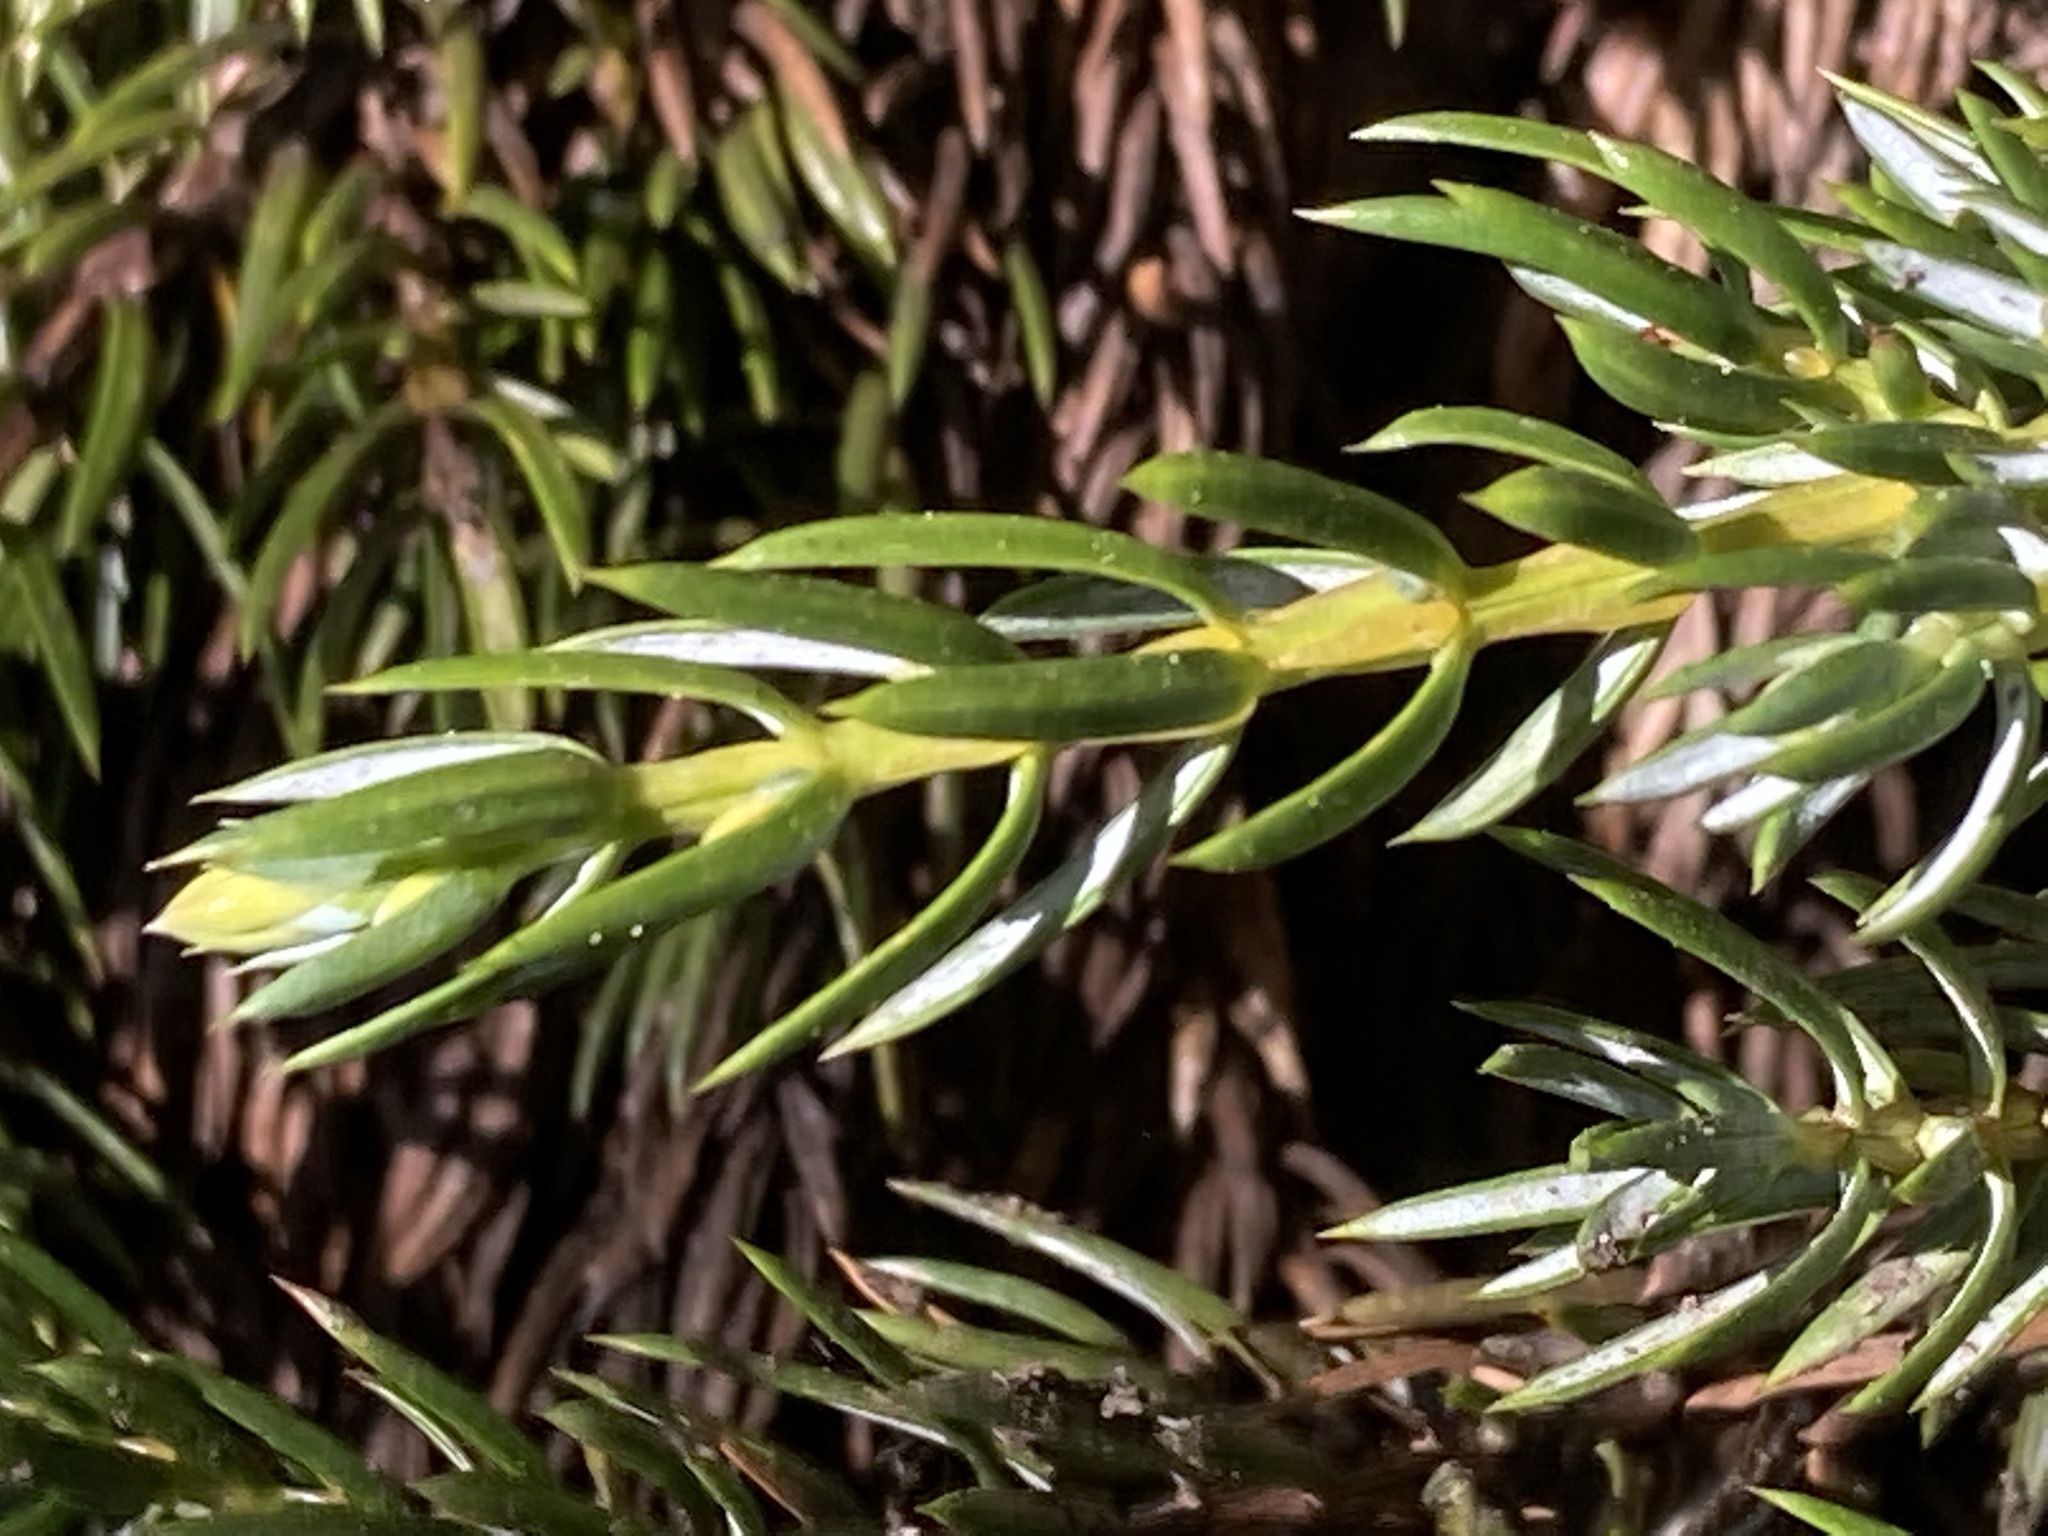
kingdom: Plantae
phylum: Tracheophyta
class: Pinopsida
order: Pinales
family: Cupressaceae
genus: Juniperus
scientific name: Juniperus communis
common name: Common juniper
